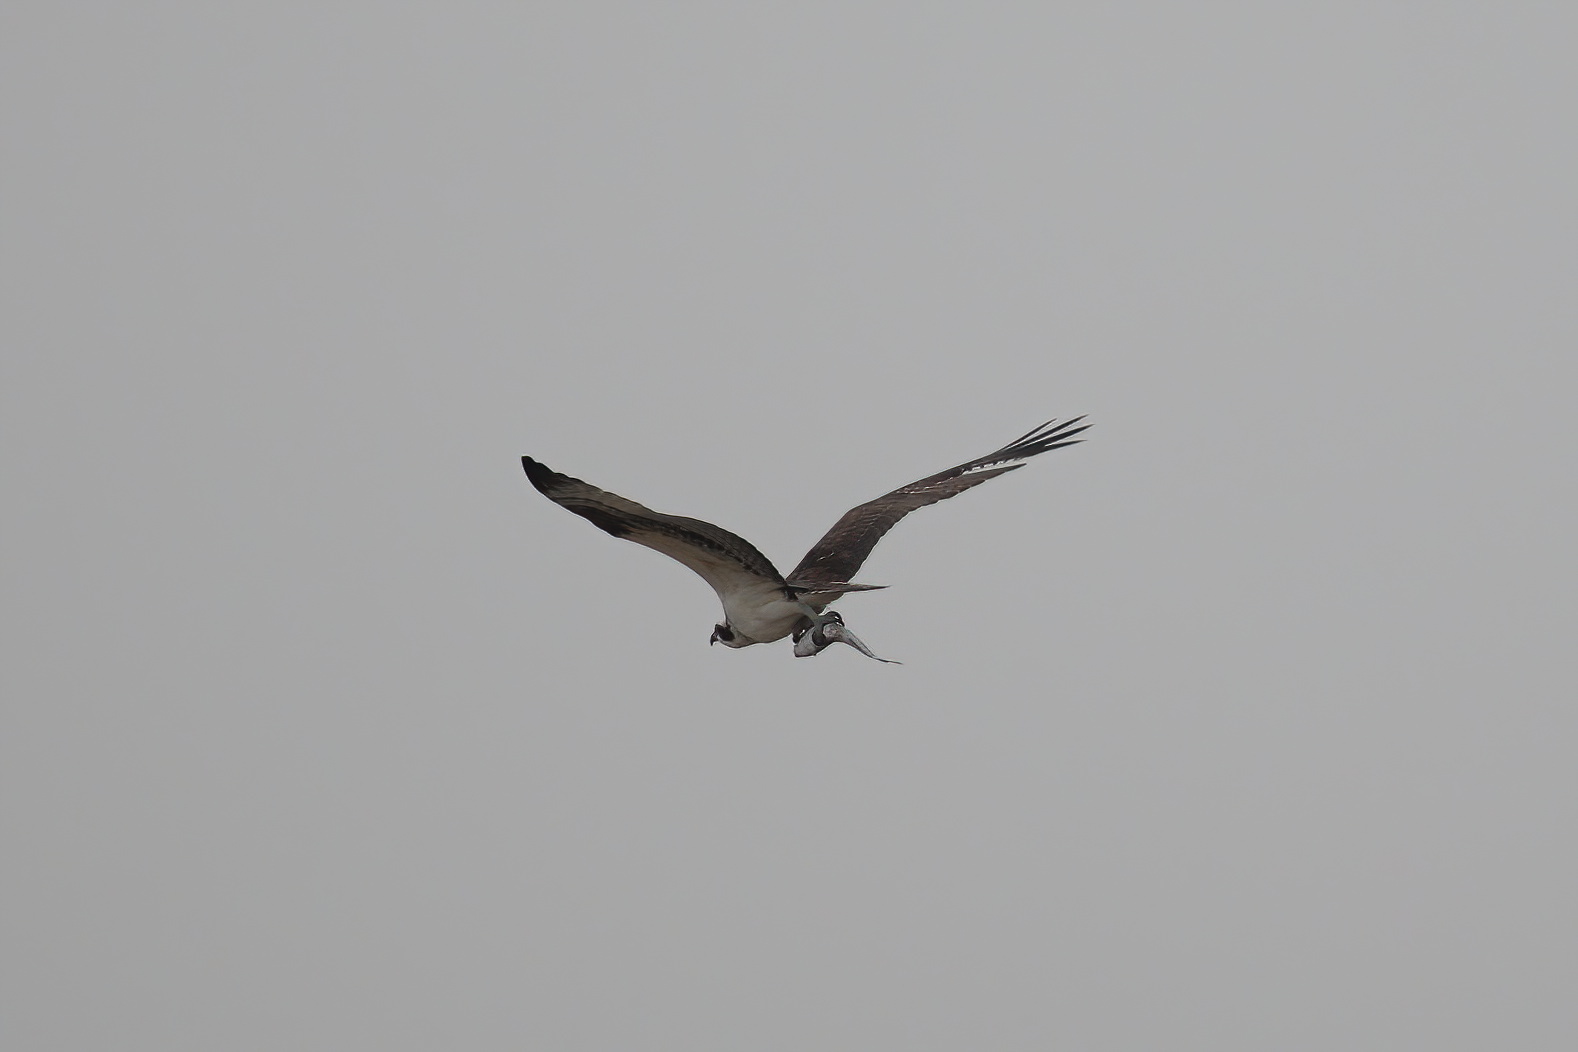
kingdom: Animalia
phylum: Chordata
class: Aves
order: Accipitriformes
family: Pandionidae
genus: Pandion
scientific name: Pandion haliaetus
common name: Osprey
